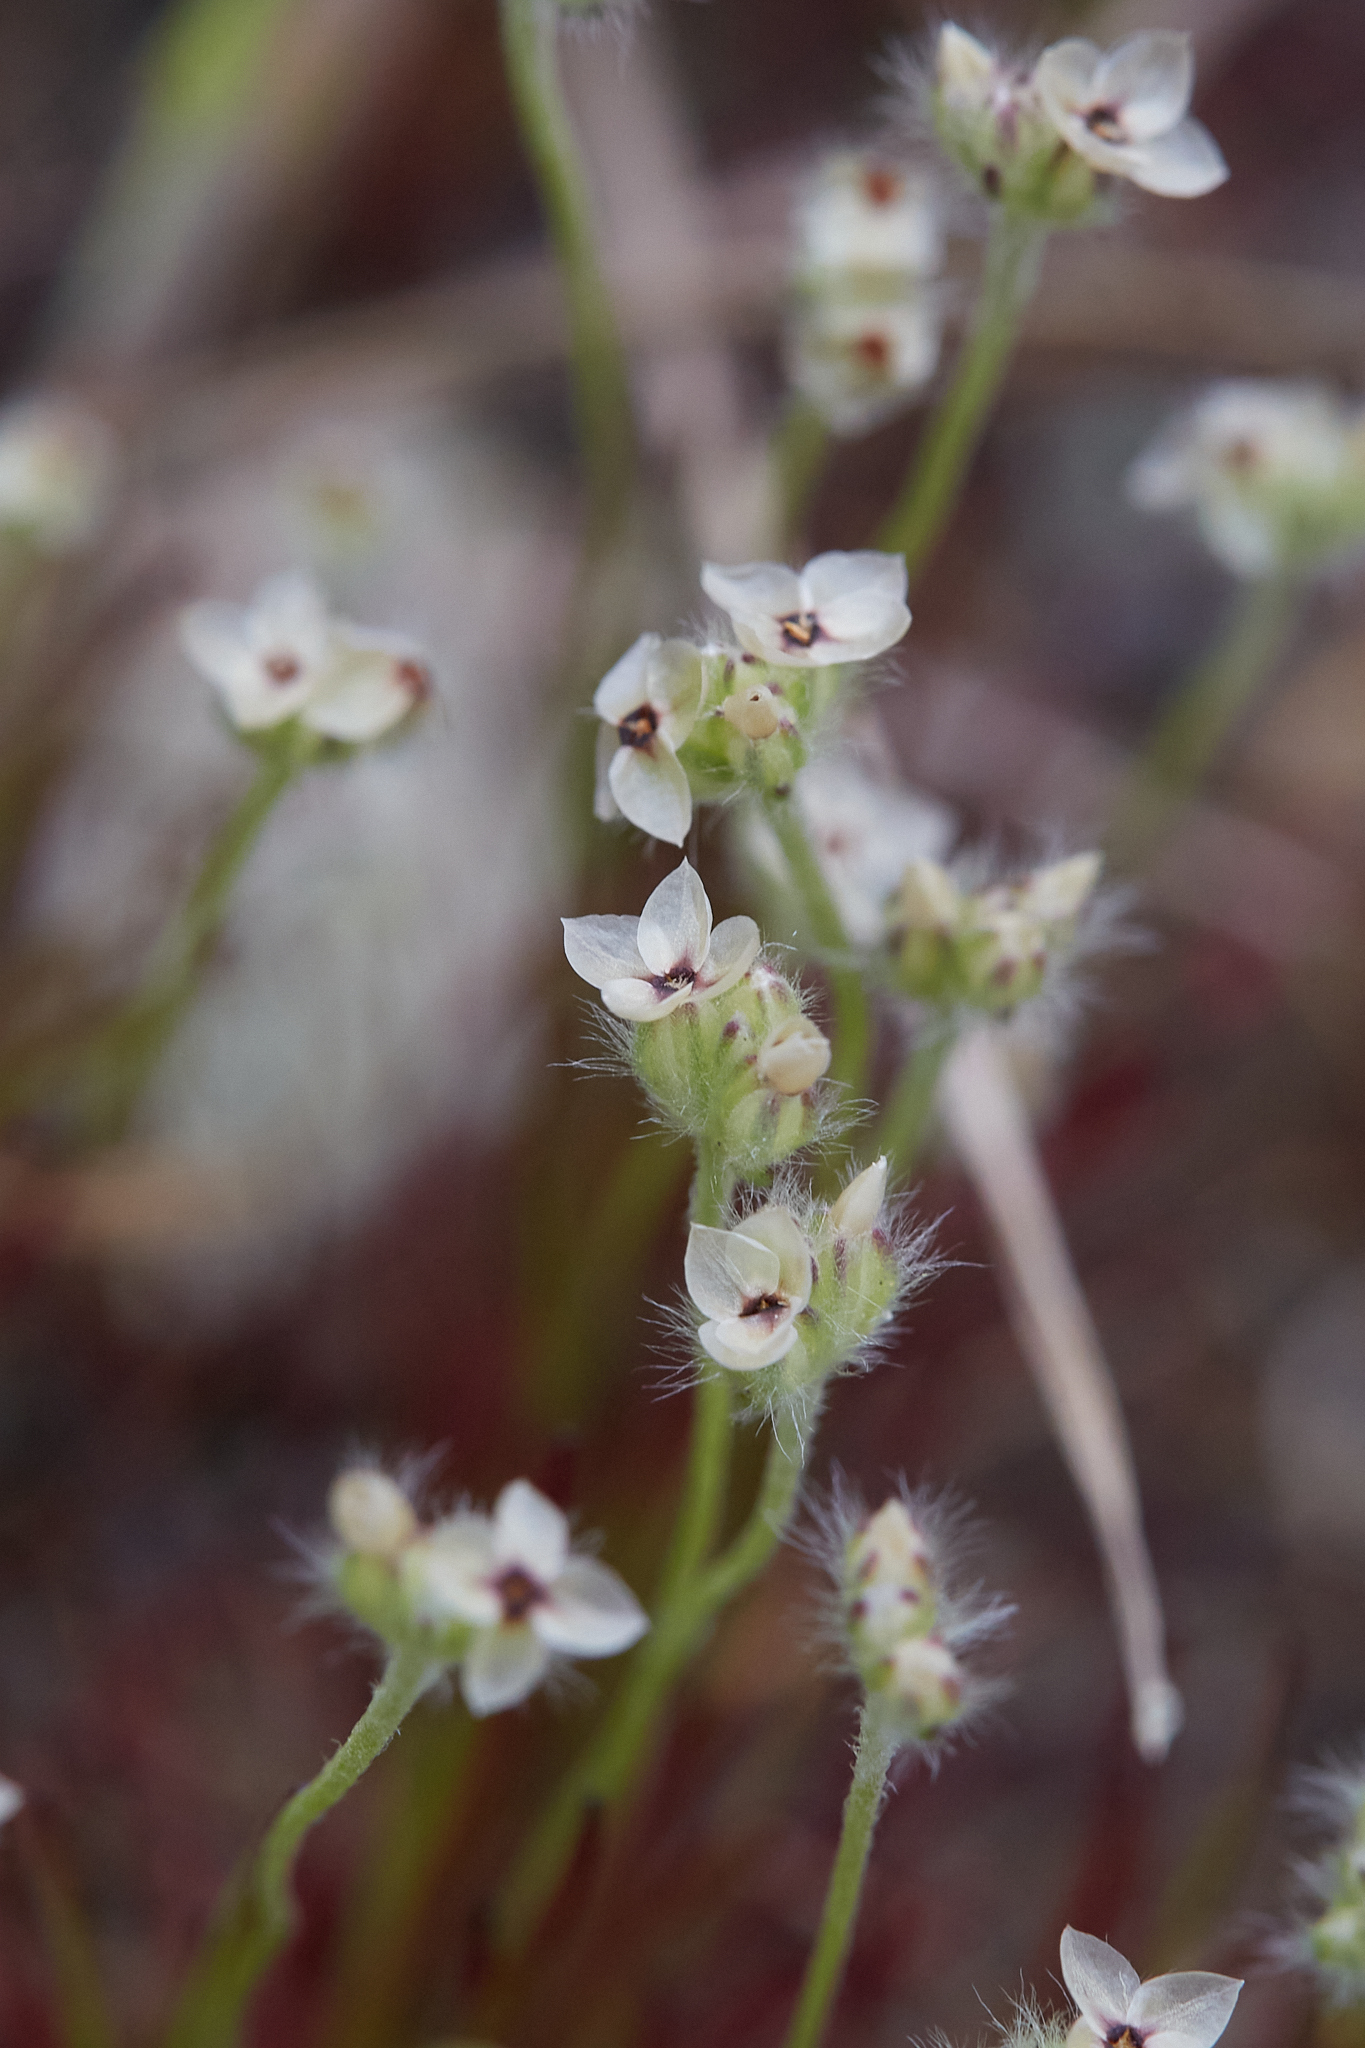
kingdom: Plantae
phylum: Tracheophyta
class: Magnoliopsida
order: Lamiales
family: Plantaginaceae
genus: Plantago
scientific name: Plantago erecta
